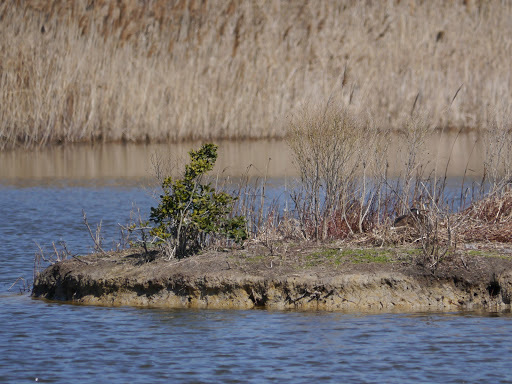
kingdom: Animalia
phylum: Chordata
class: Aves
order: Anseriformes
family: Anatidae
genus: Branta
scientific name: Branta canadensis
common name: Canada goose
